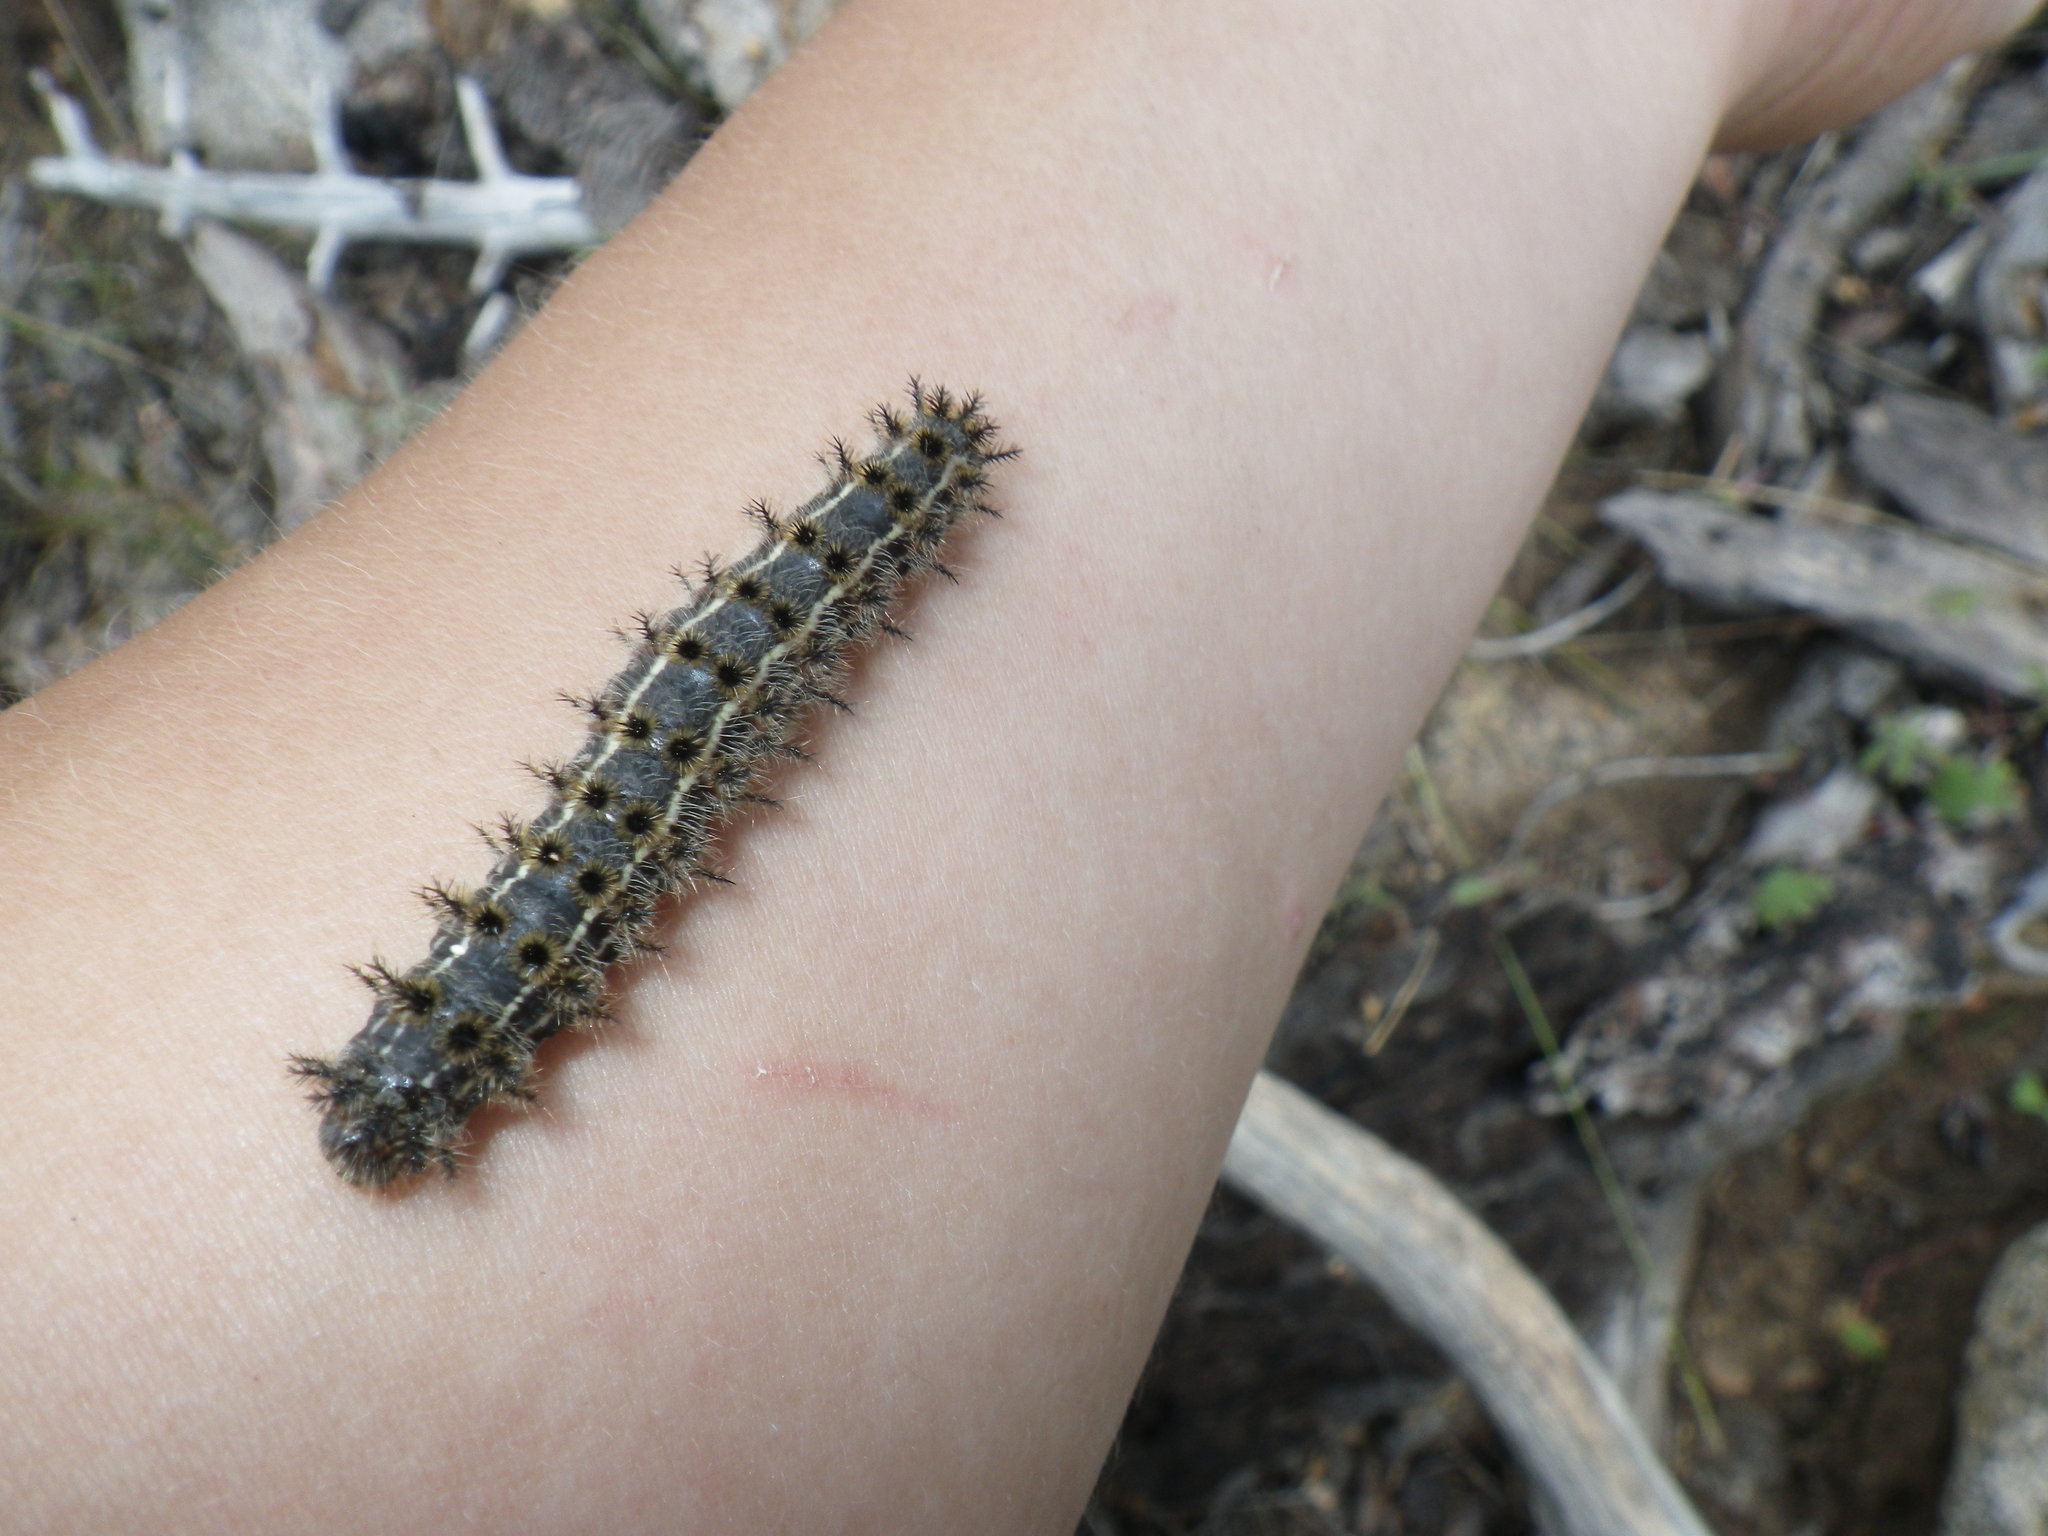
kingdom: Animalia
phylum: Arthropoda
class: Insecta
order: Lepidoptera
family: Saturniidae
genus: Hemileuca
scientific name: Hemileuca eglanterina
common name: Western sheepmoth
